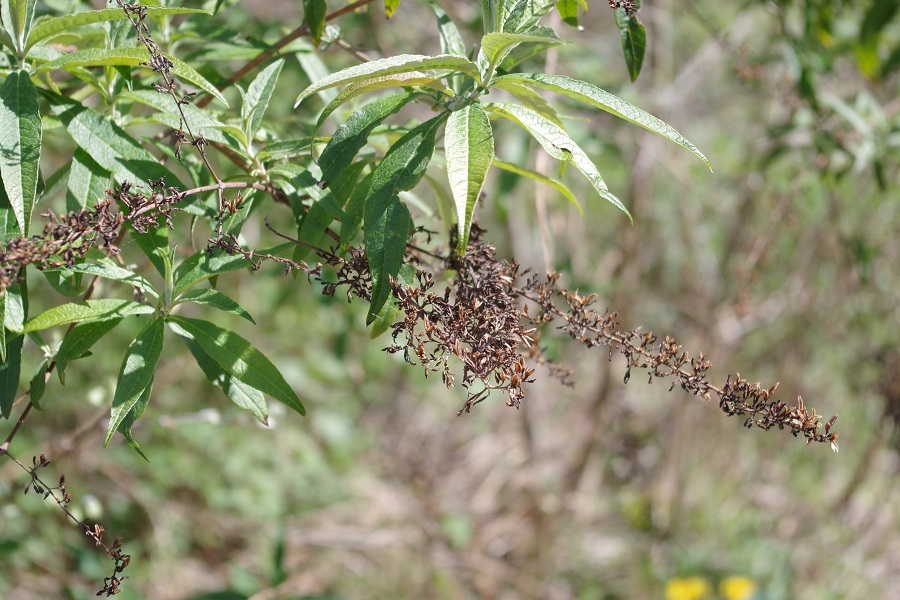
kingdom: Plantae
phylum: Tracheophyta
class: Magnoliopsida
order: Lamiales
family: Scrophulariaceae
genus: Buddleja
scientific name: Buddleja davidii
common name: Butterfly-bush
